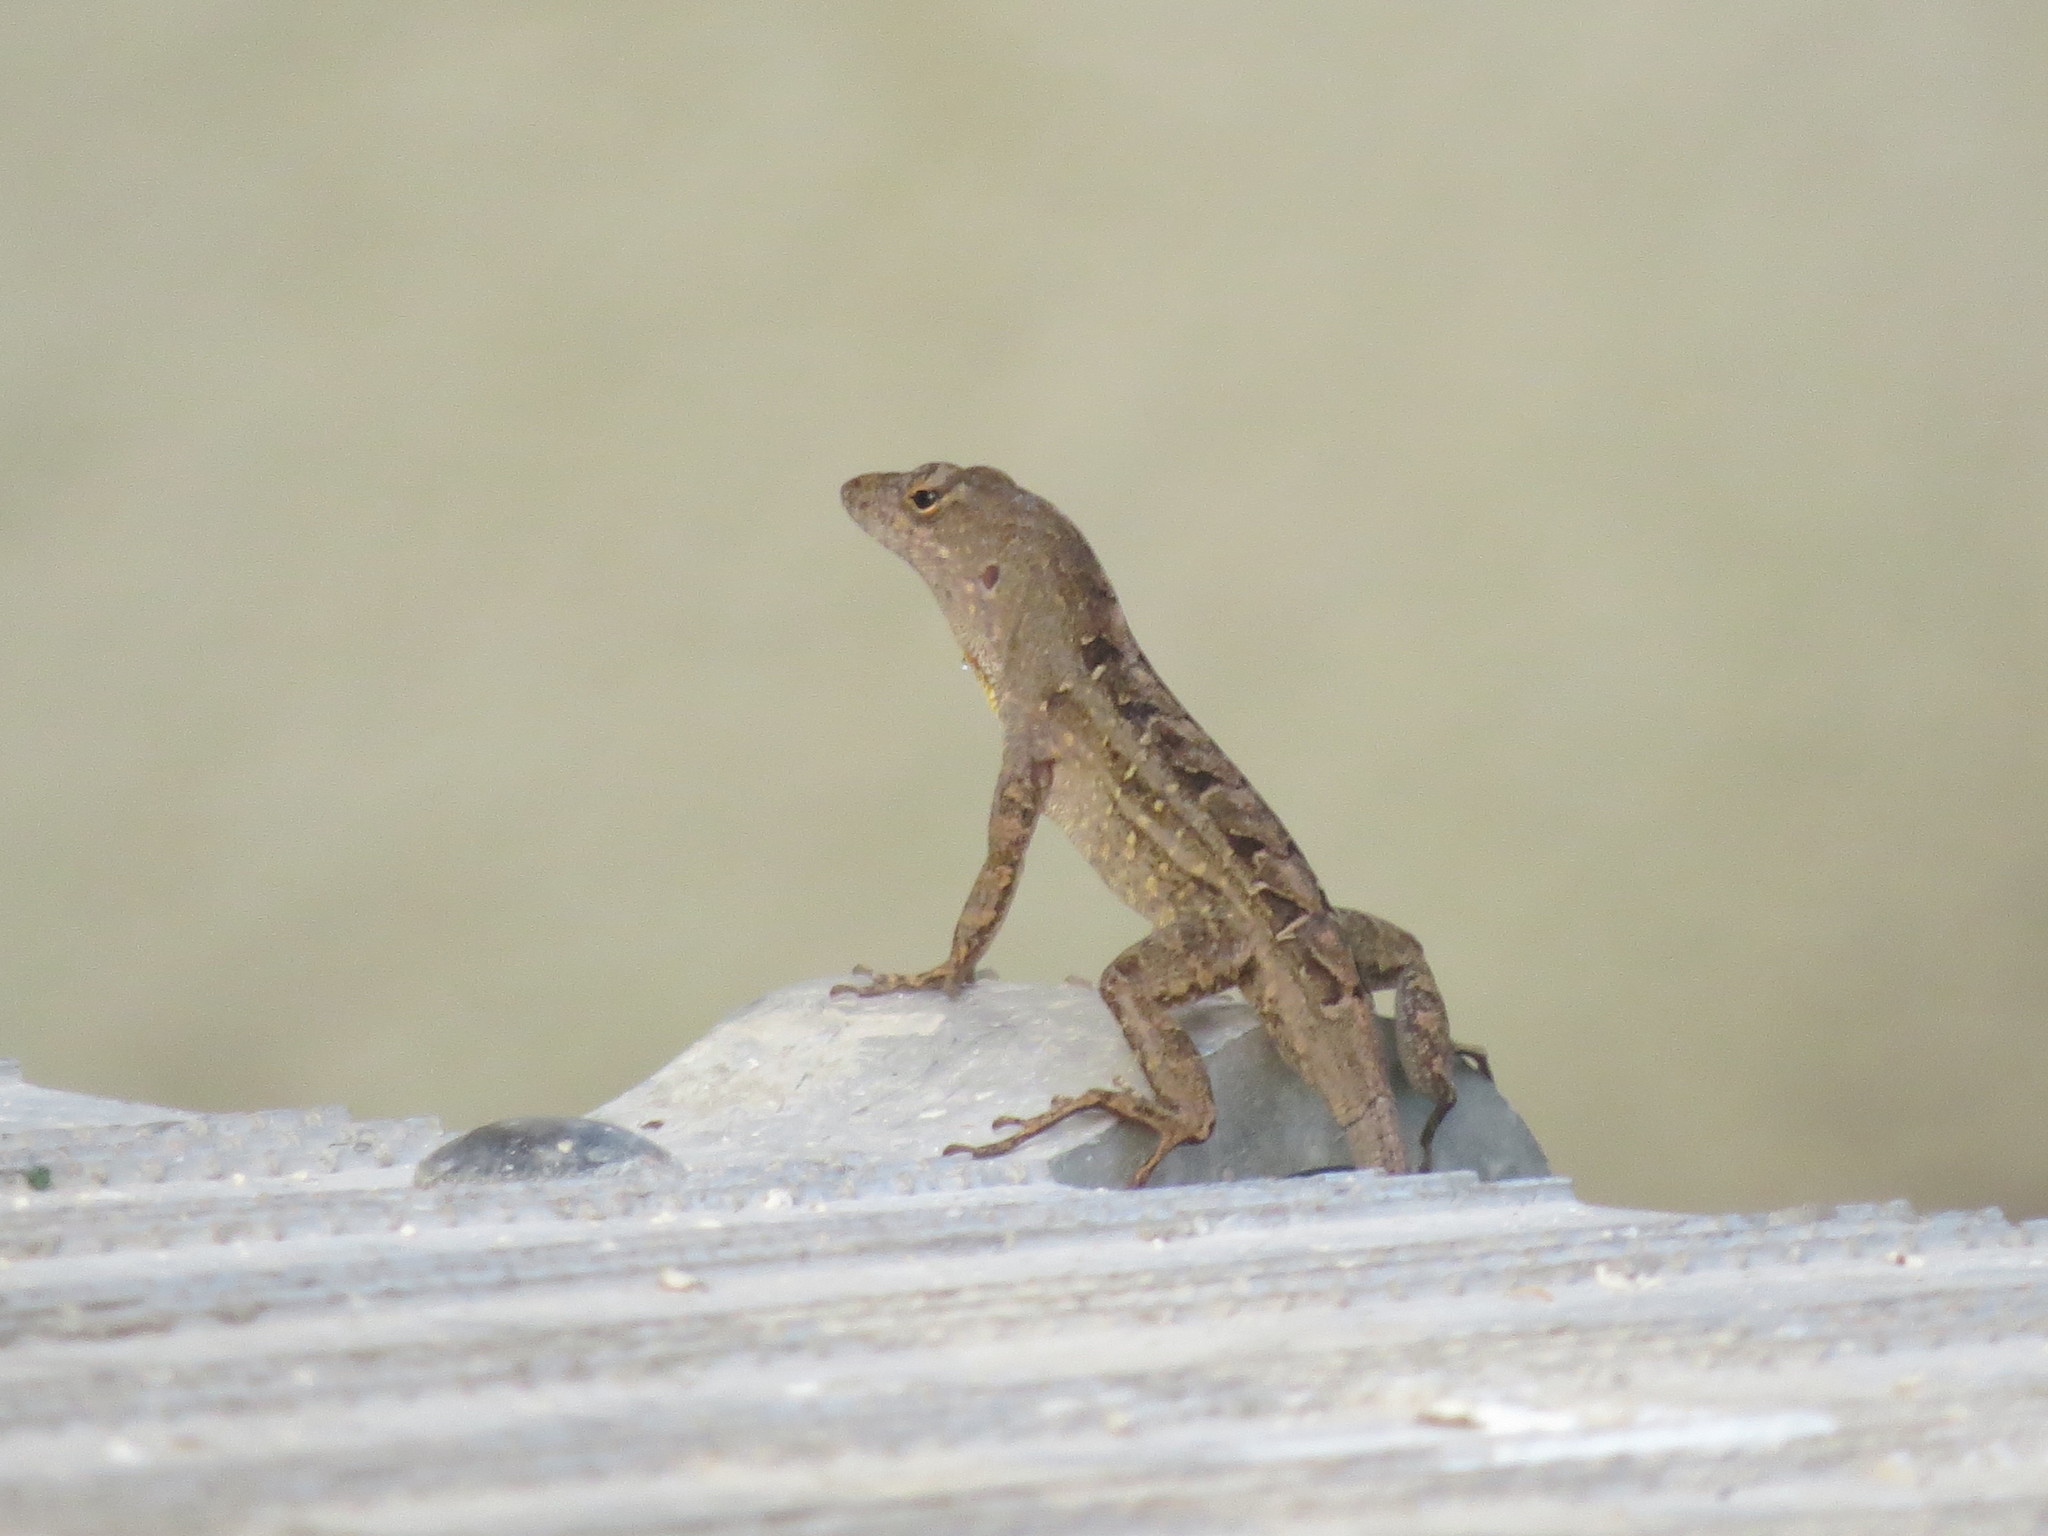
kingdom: Animalia
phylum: Chordata
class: Squamata
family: Dactyloidae
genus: Anolis
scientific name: Anolis sagrei
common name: Brown anole
